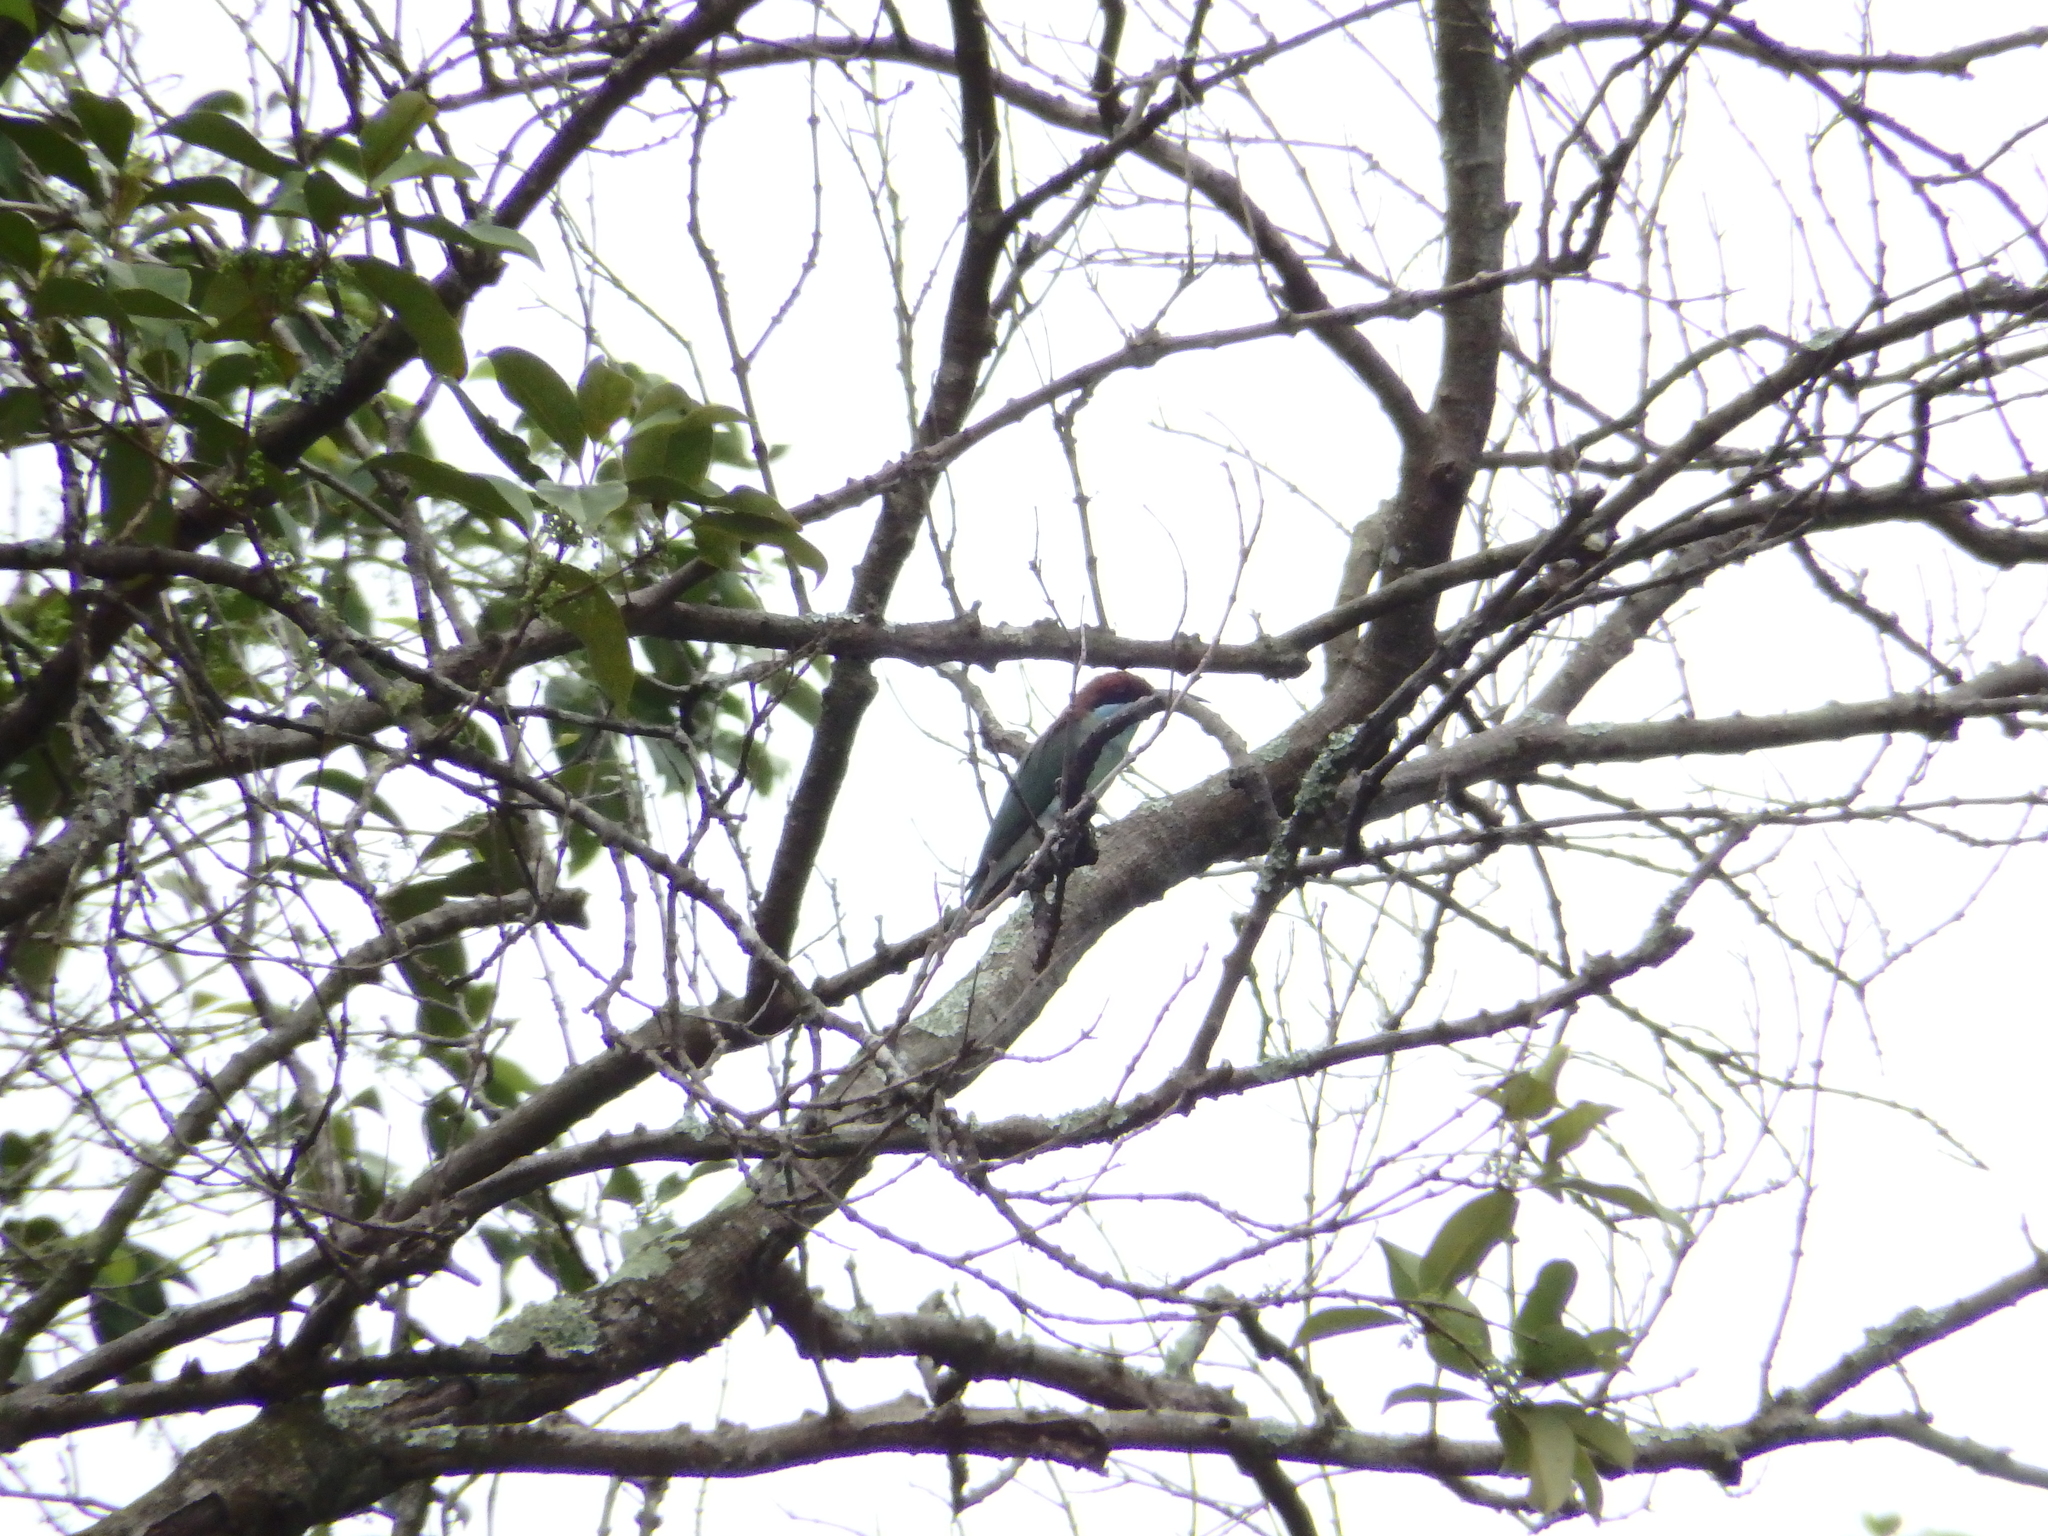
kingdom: Animalia
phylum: Chordata
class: Aves
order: Coraciiformes
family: Meropidae
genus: Merops
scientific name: Merops viridis
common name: Blue-throated bee-eater
